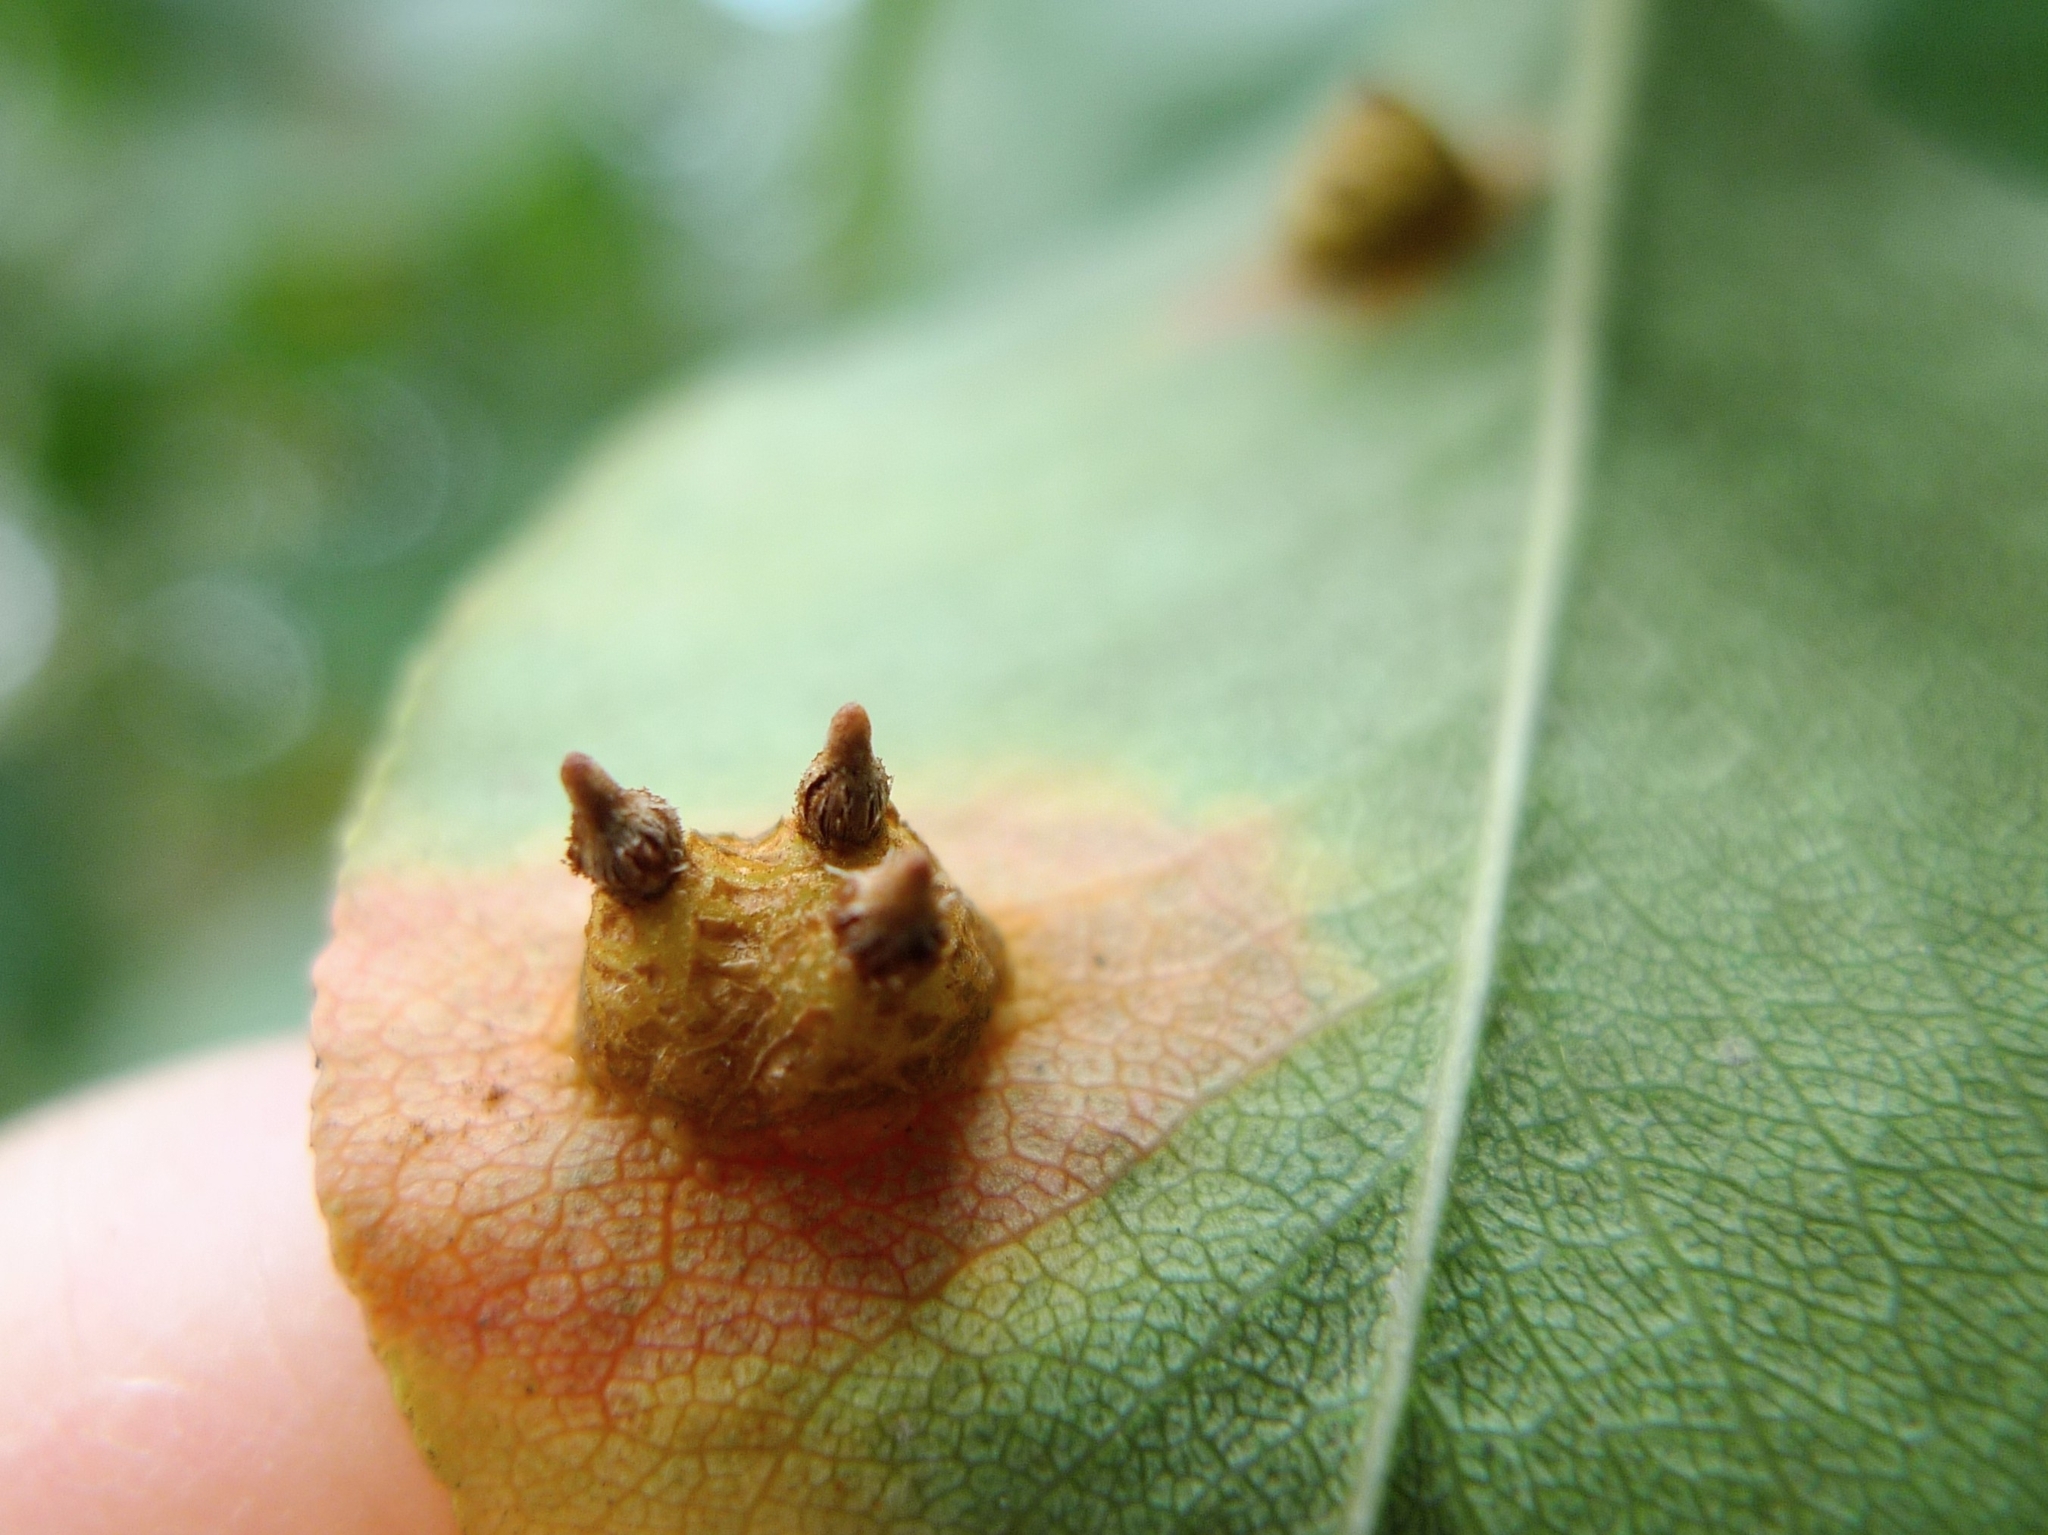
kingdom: Fungi
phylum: Basidiomycota
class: Pucciniomycetes
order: Pucciniales
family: Gymnosporangiaceae
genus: Gymnosporangium
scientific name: Gymnosporangium sabinae
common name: Pear trellis rust fungus
